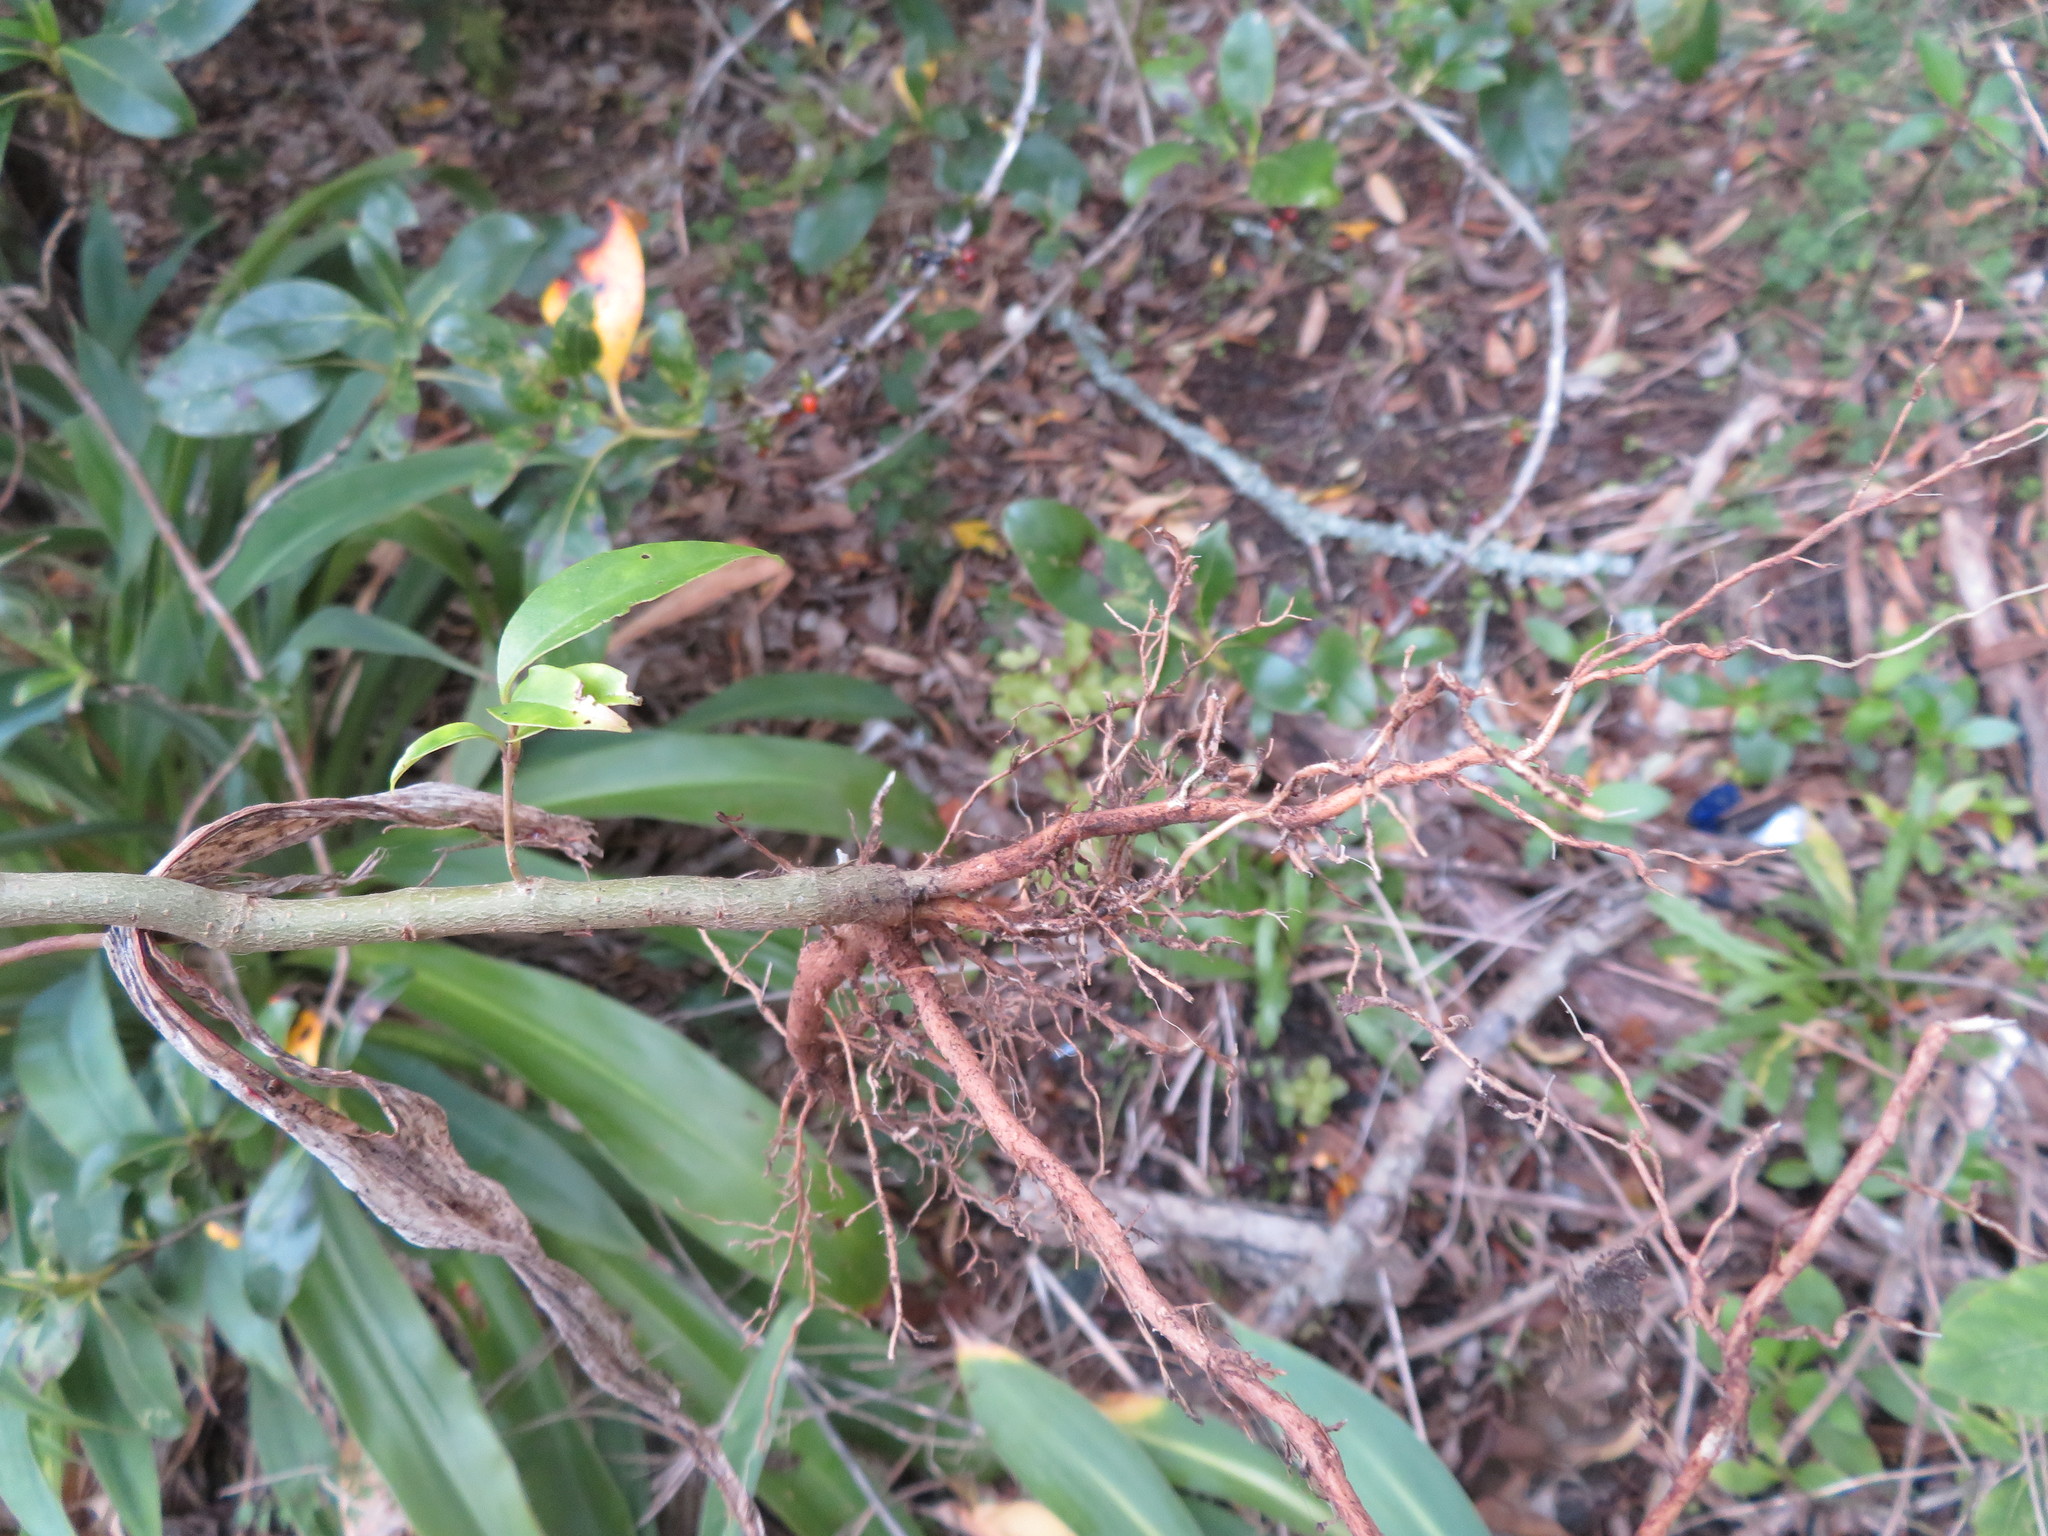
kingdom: Plantae
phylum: Tracheophyta
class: Magnoliopsida
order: Lamiales
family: Oleaceae
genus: Ligustrum
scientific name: Ligustrum lucidum
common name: Glossy privet
